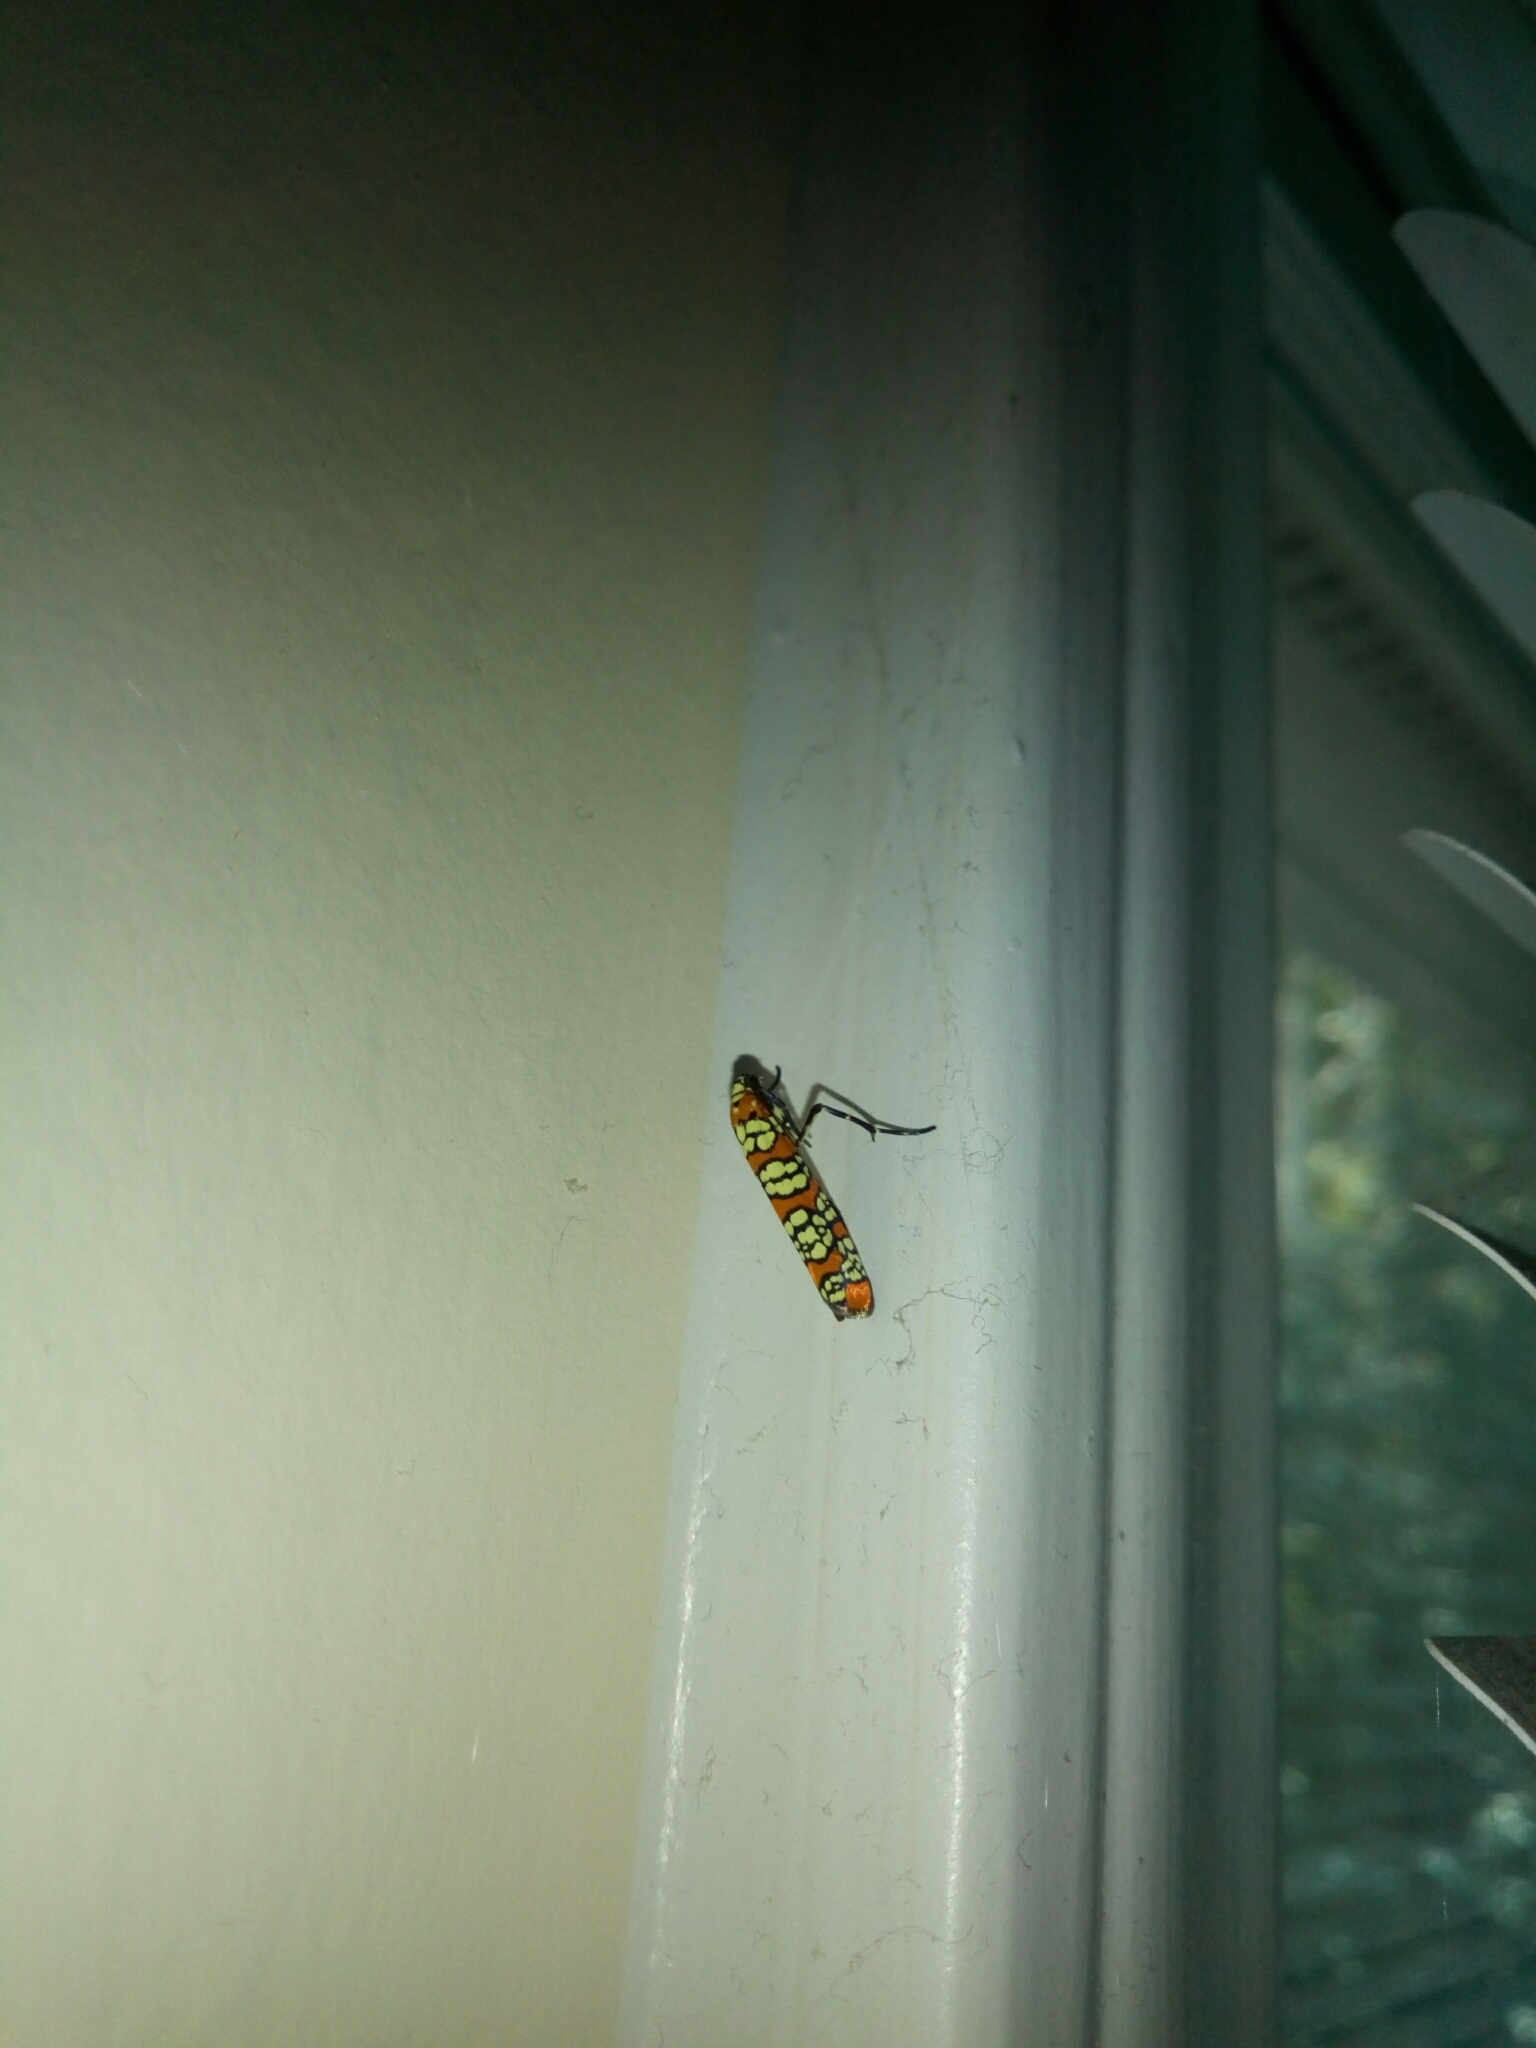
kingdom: Animalia
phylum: Arthropoda
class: Insecta
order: Lepidoptera
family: Attevidae
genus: Atteva
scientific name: Atteva punctella
